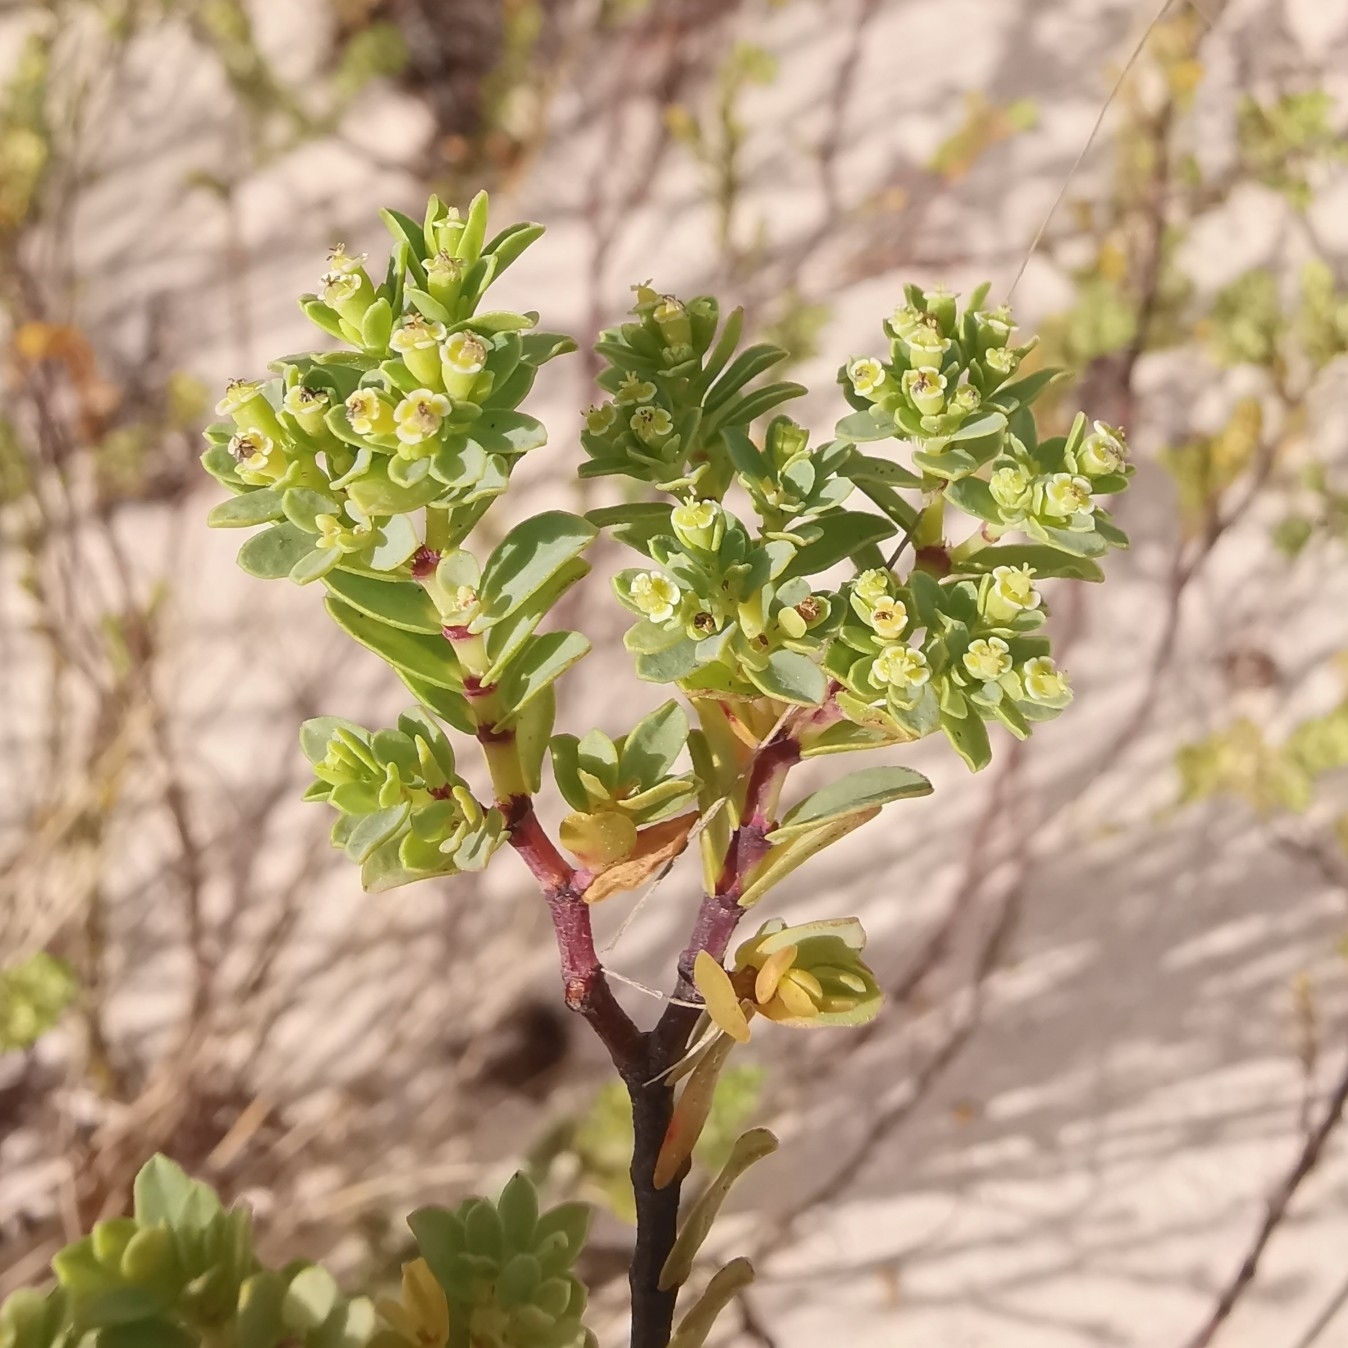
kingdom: Plantae
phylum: Tracheophyta
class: Magnoliopsida
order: Malpighiales
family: Euphorbiaceae
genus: Euphorbia
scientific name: Euphorbia mesembryanthemifolia
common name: Coastal beach sandmat
